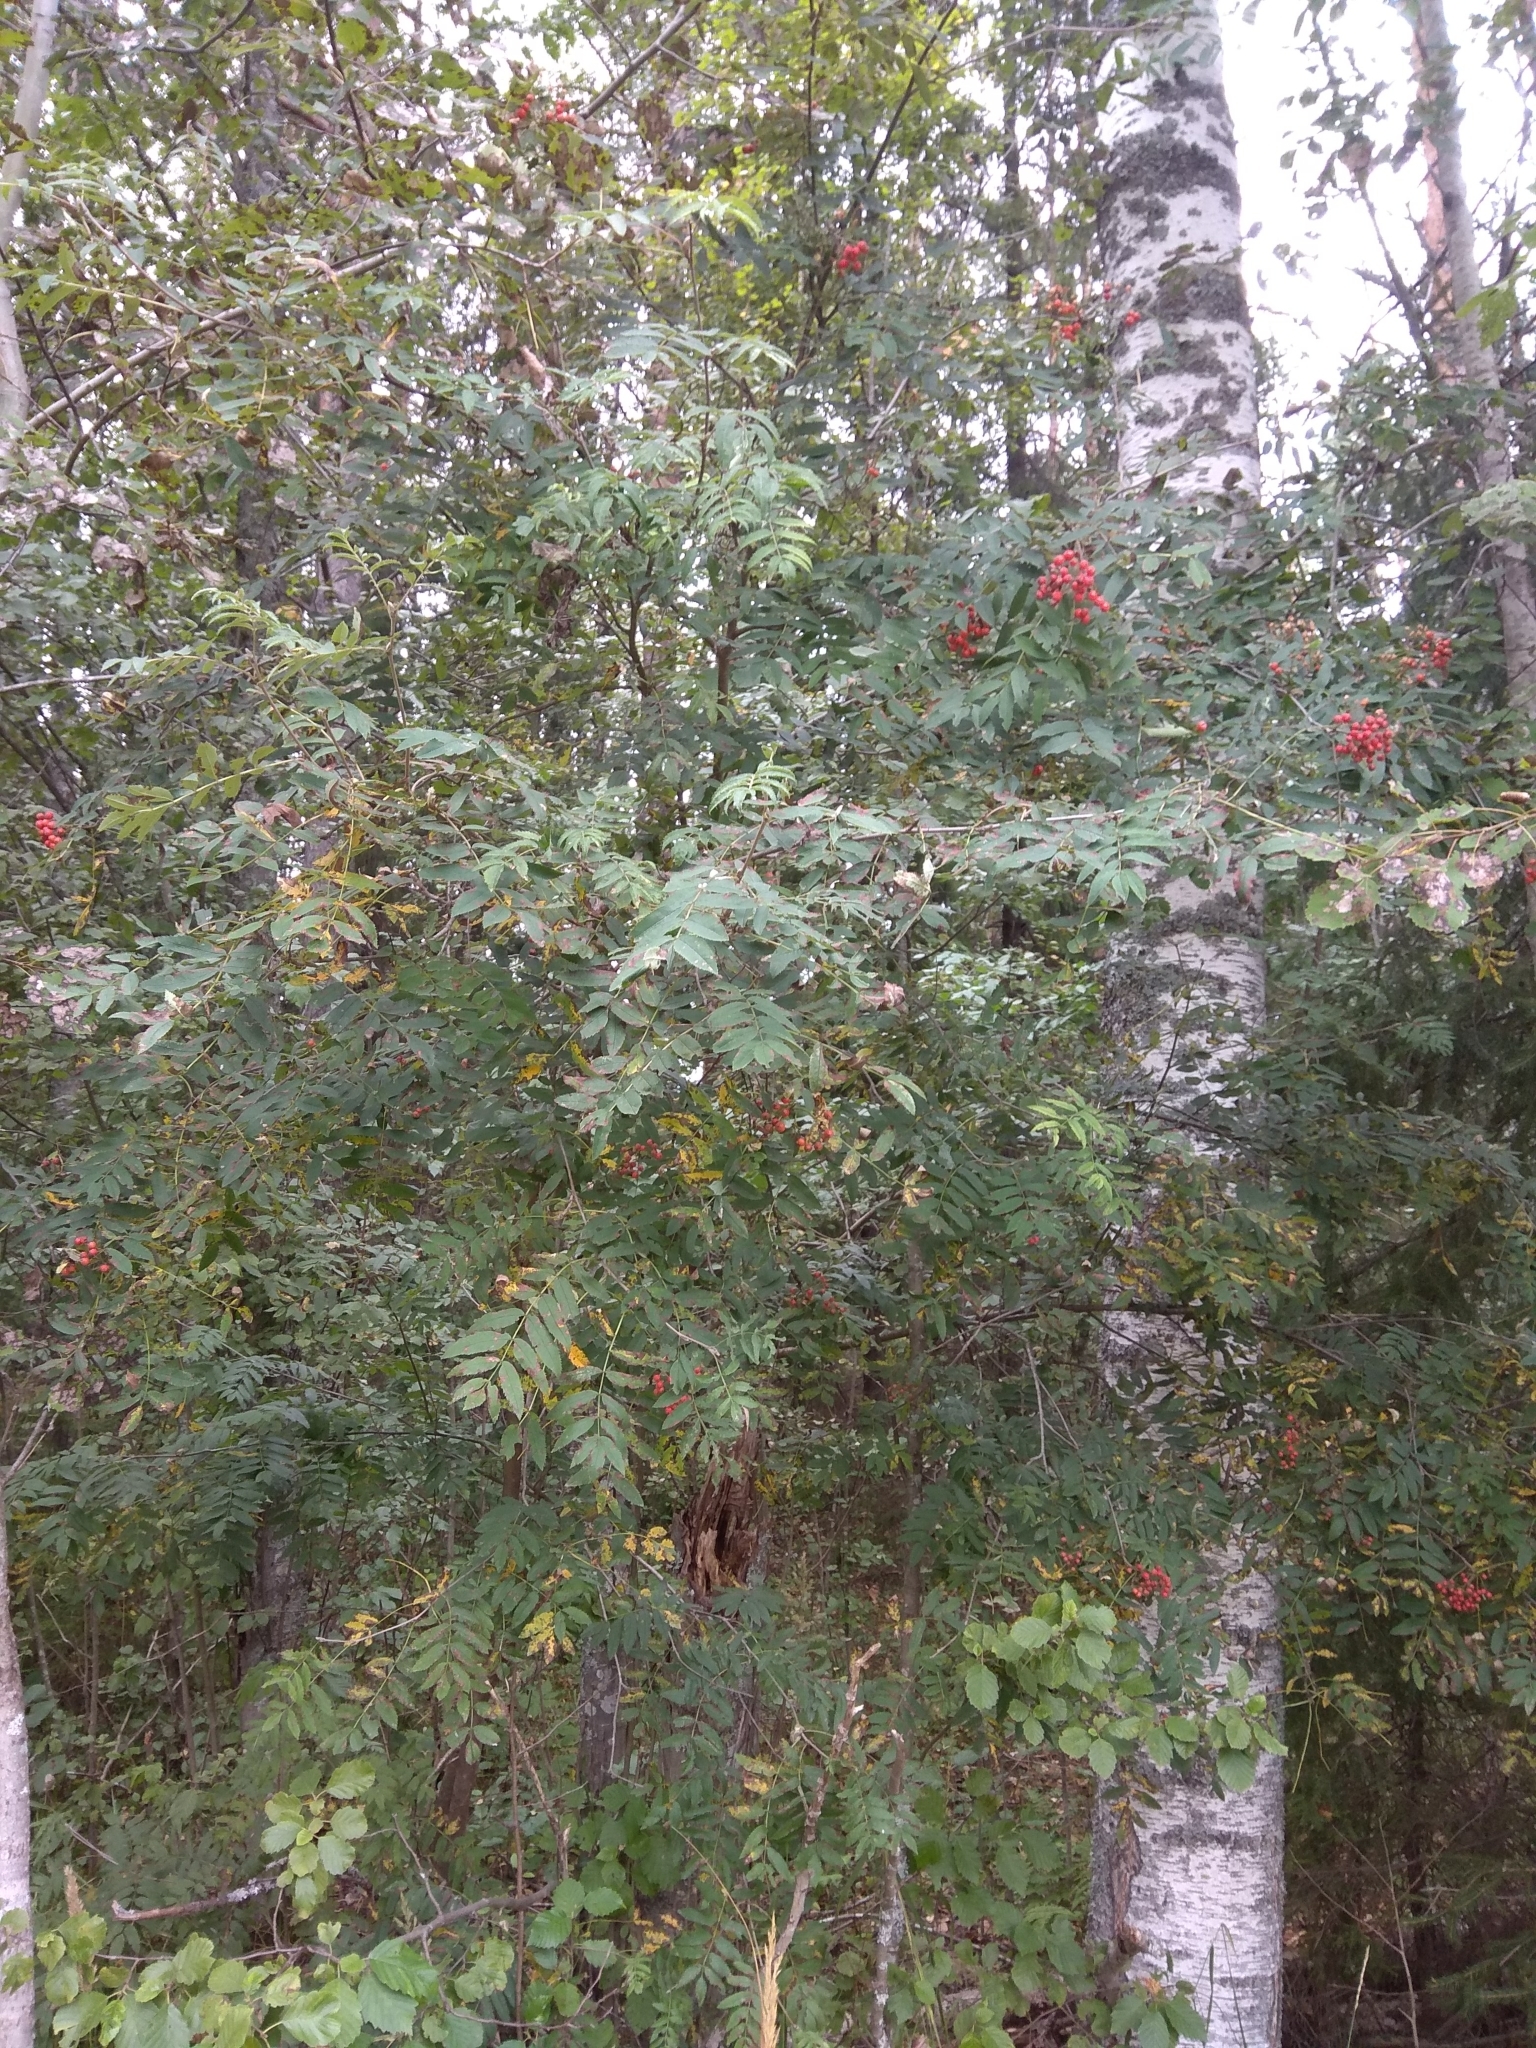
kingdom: Plantae
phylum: Tracheophyta
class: Magnoliopsida
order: Rosales
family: Rosaceae
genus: Sorbus
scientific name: Sorbus aucuparia
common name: Rowan
